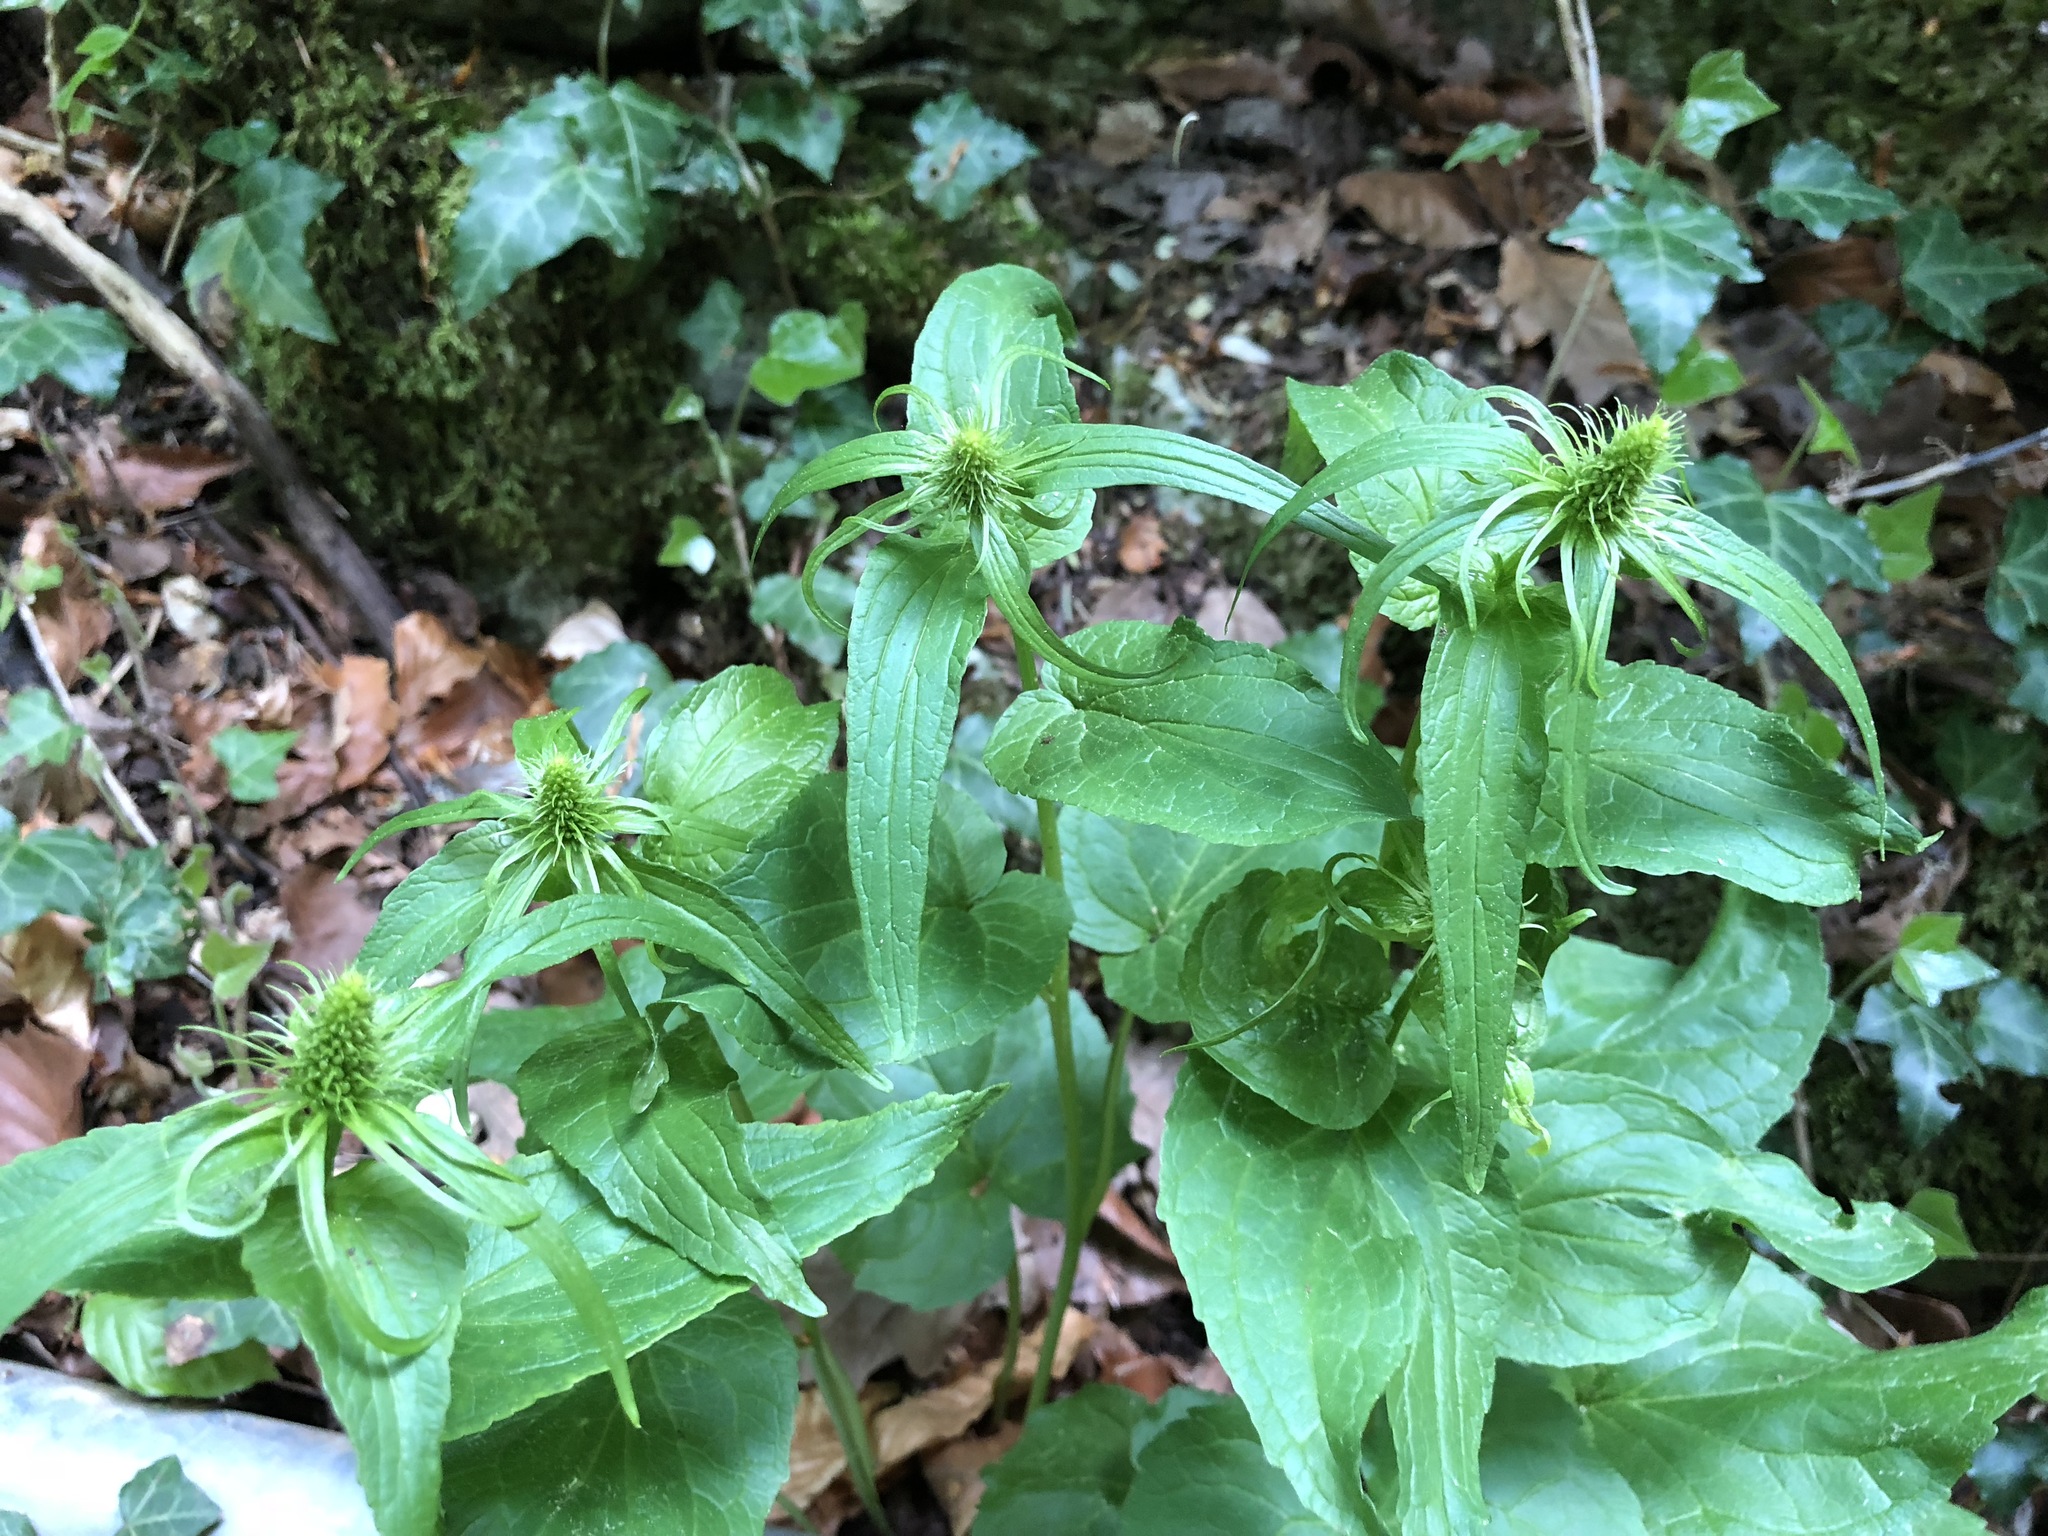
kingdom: Plantae
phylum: Tracheophyta
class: Magnoliopsida
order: Asterales
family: Campanulaceae
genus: Phyteuma
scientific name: Phyteuma spicatum
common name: Spiked rampion
